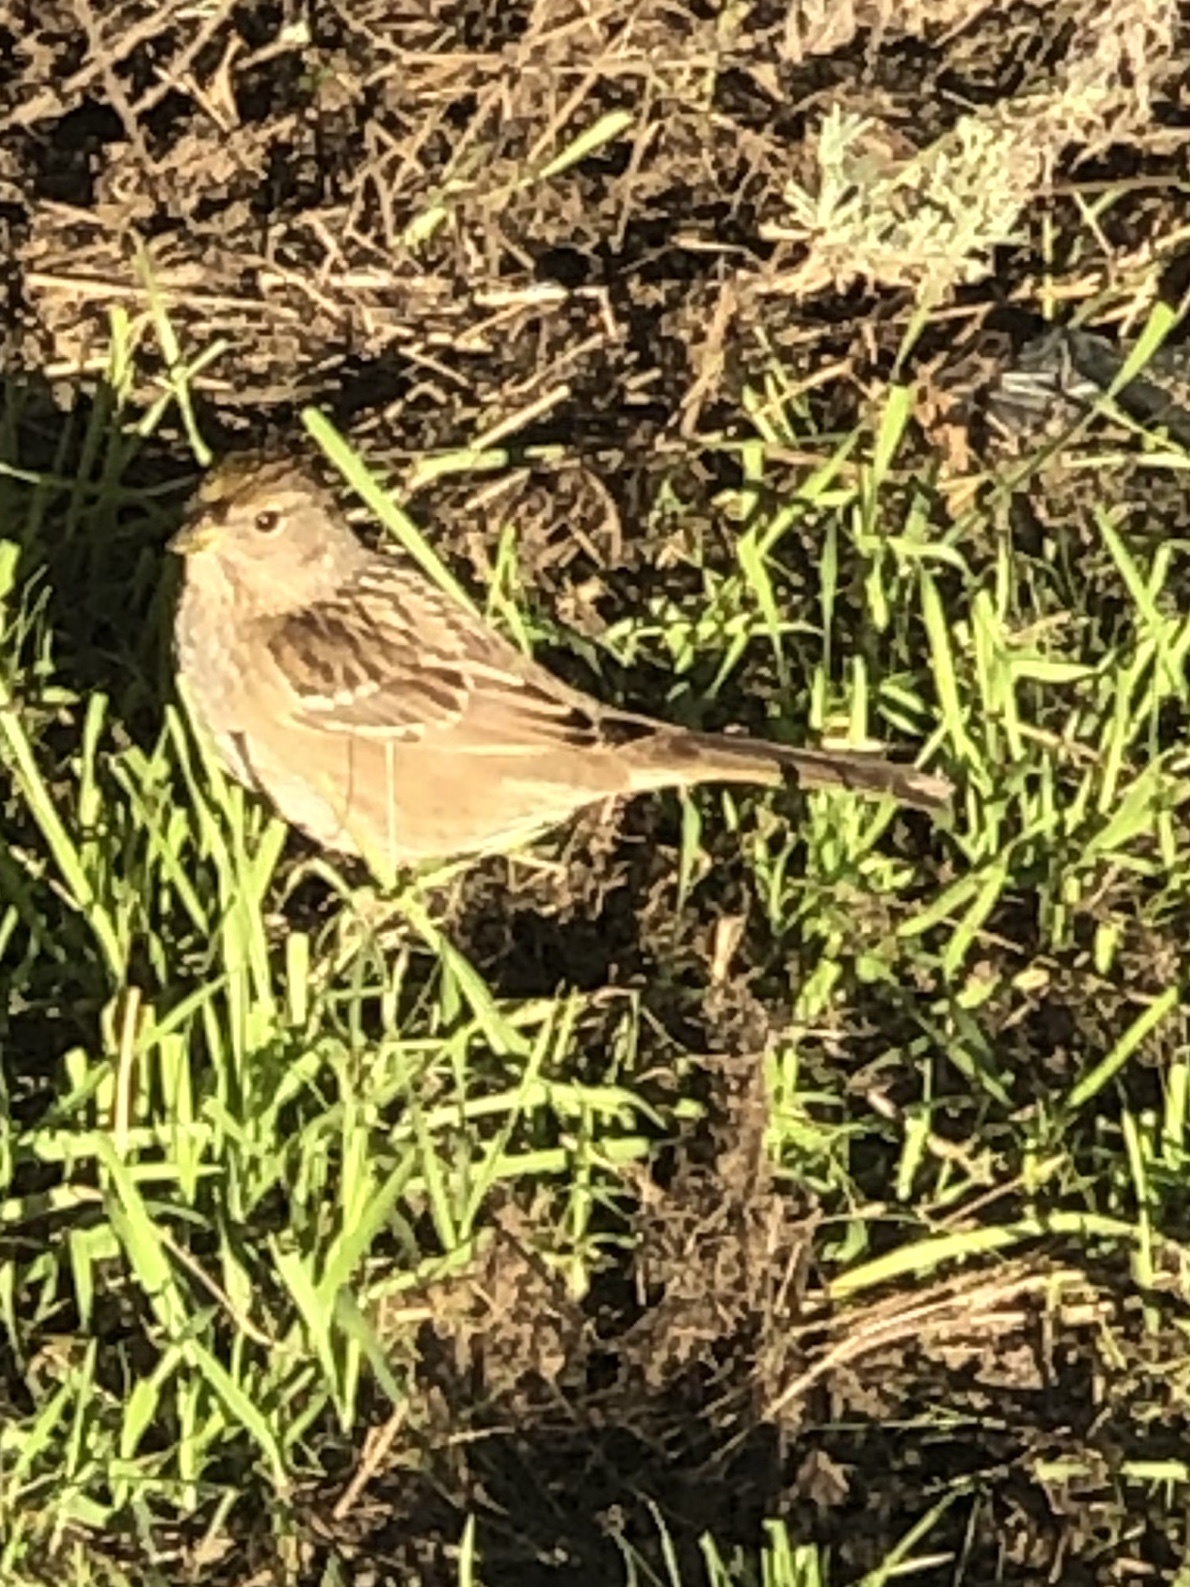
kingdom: Animalia
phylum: Chordata
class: Aves
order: Passeriformes
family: Passerellidae
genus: Zonotrichia
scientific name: Zonotrichia atricapilla
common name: Golden-crowned sparrow
